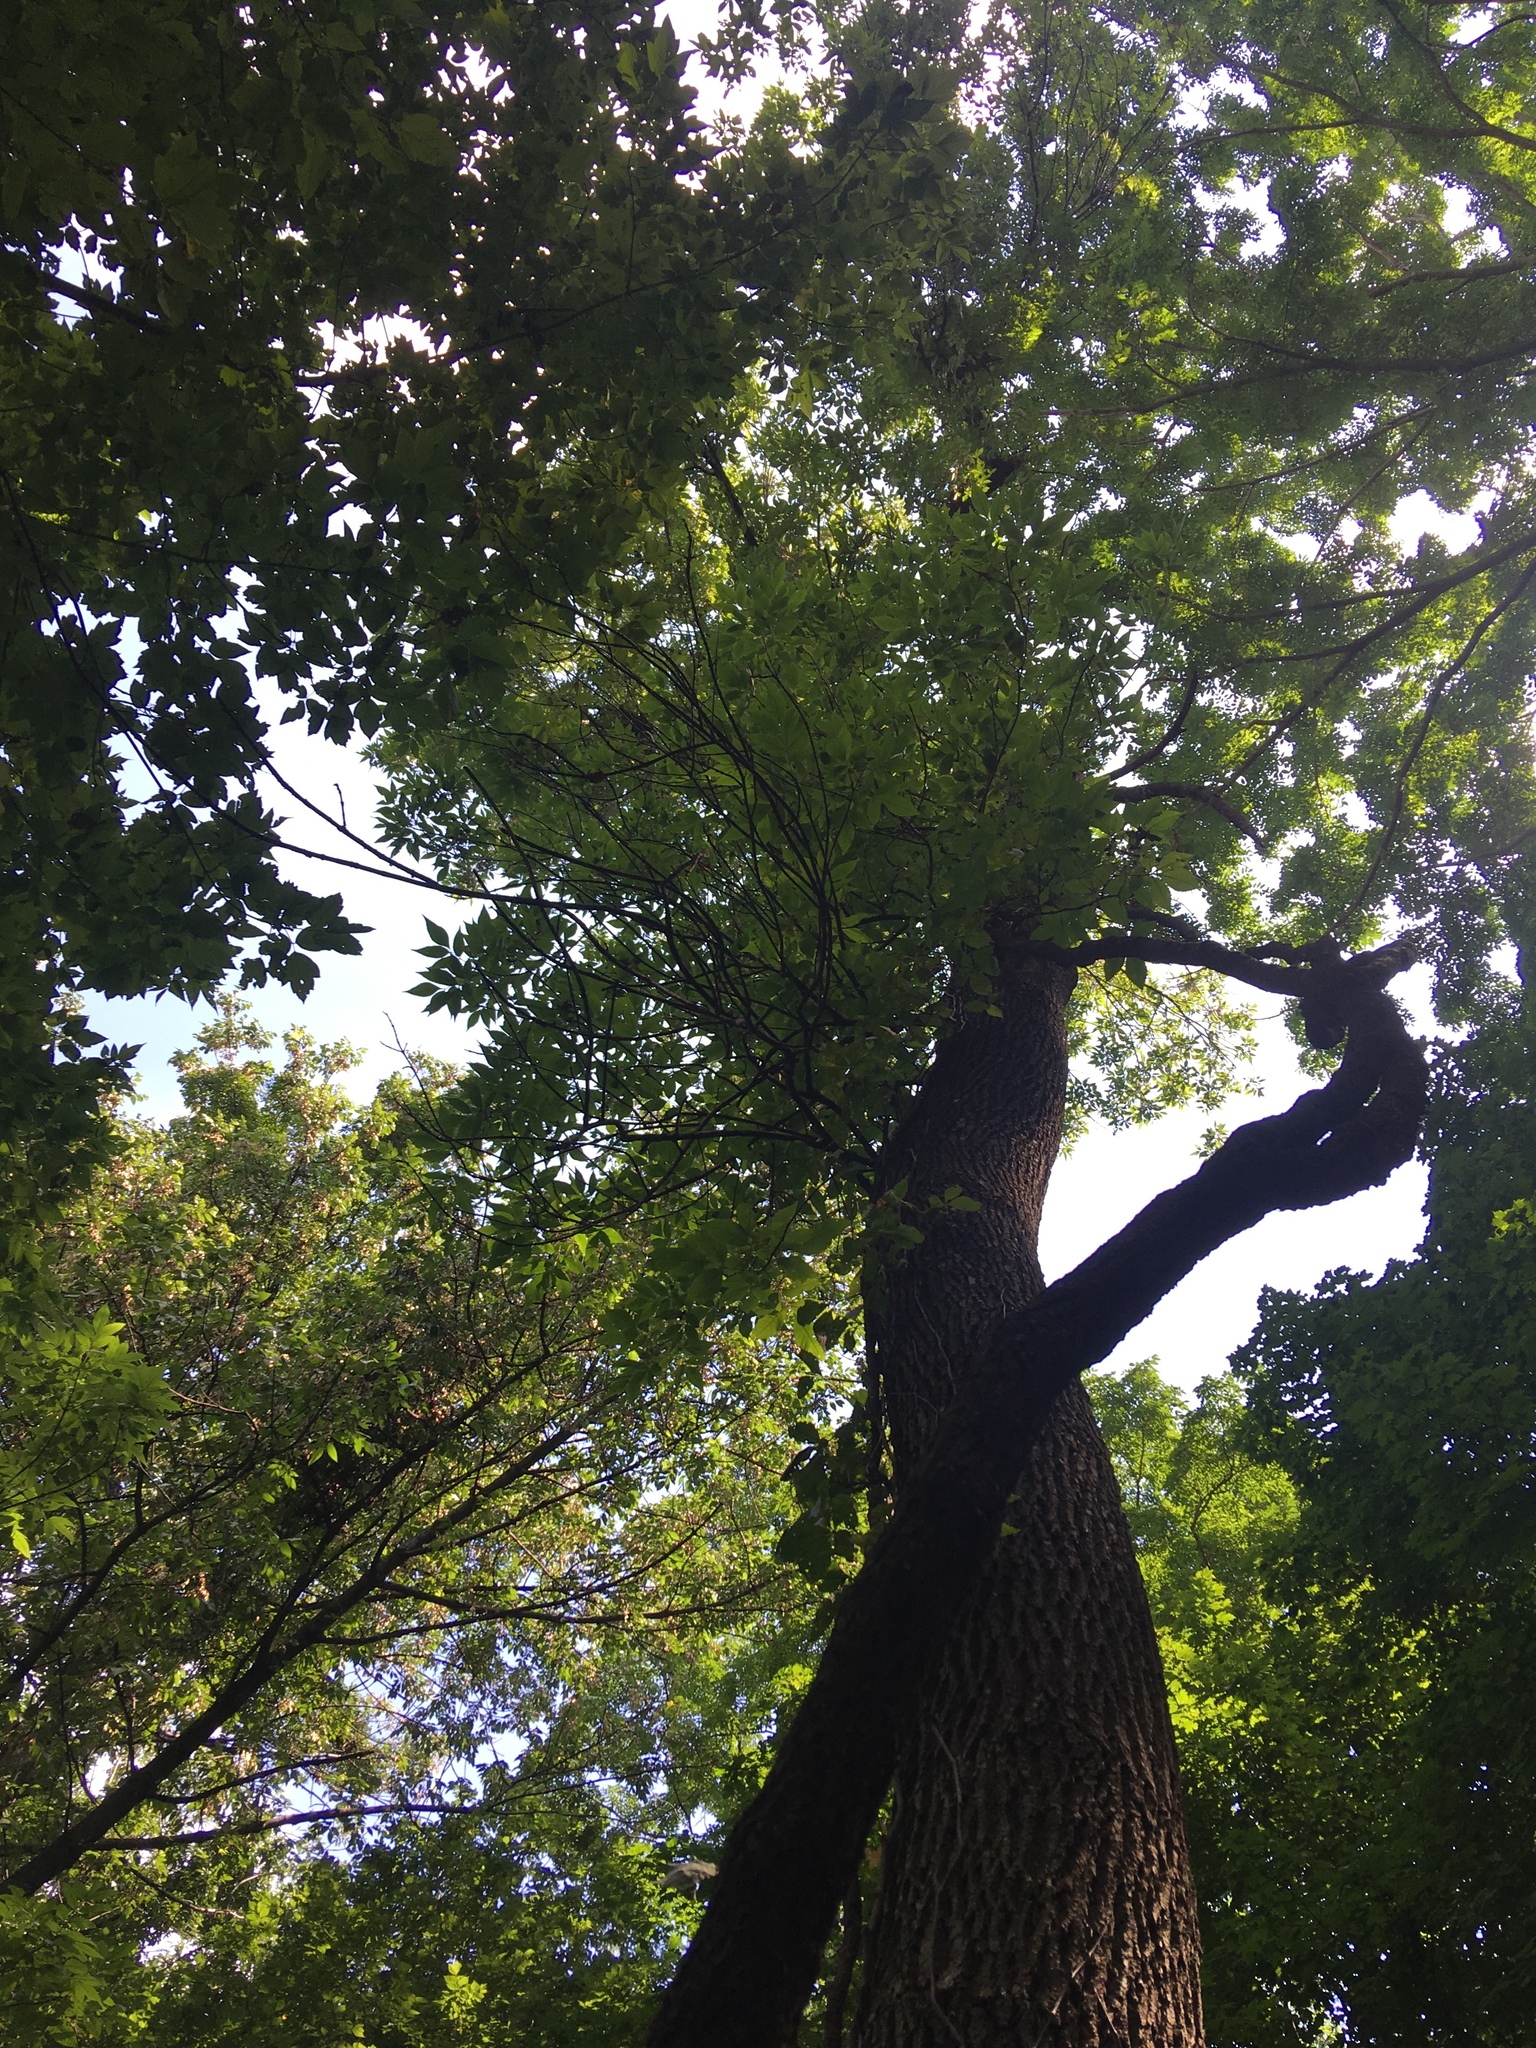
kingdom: Plantae
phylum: Tracheophyta
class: Magnoliopsida
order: Lamiales
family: Oleaceae
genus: Fraxinus
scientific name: Fraxinus profunda
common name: Pumpkin ash
